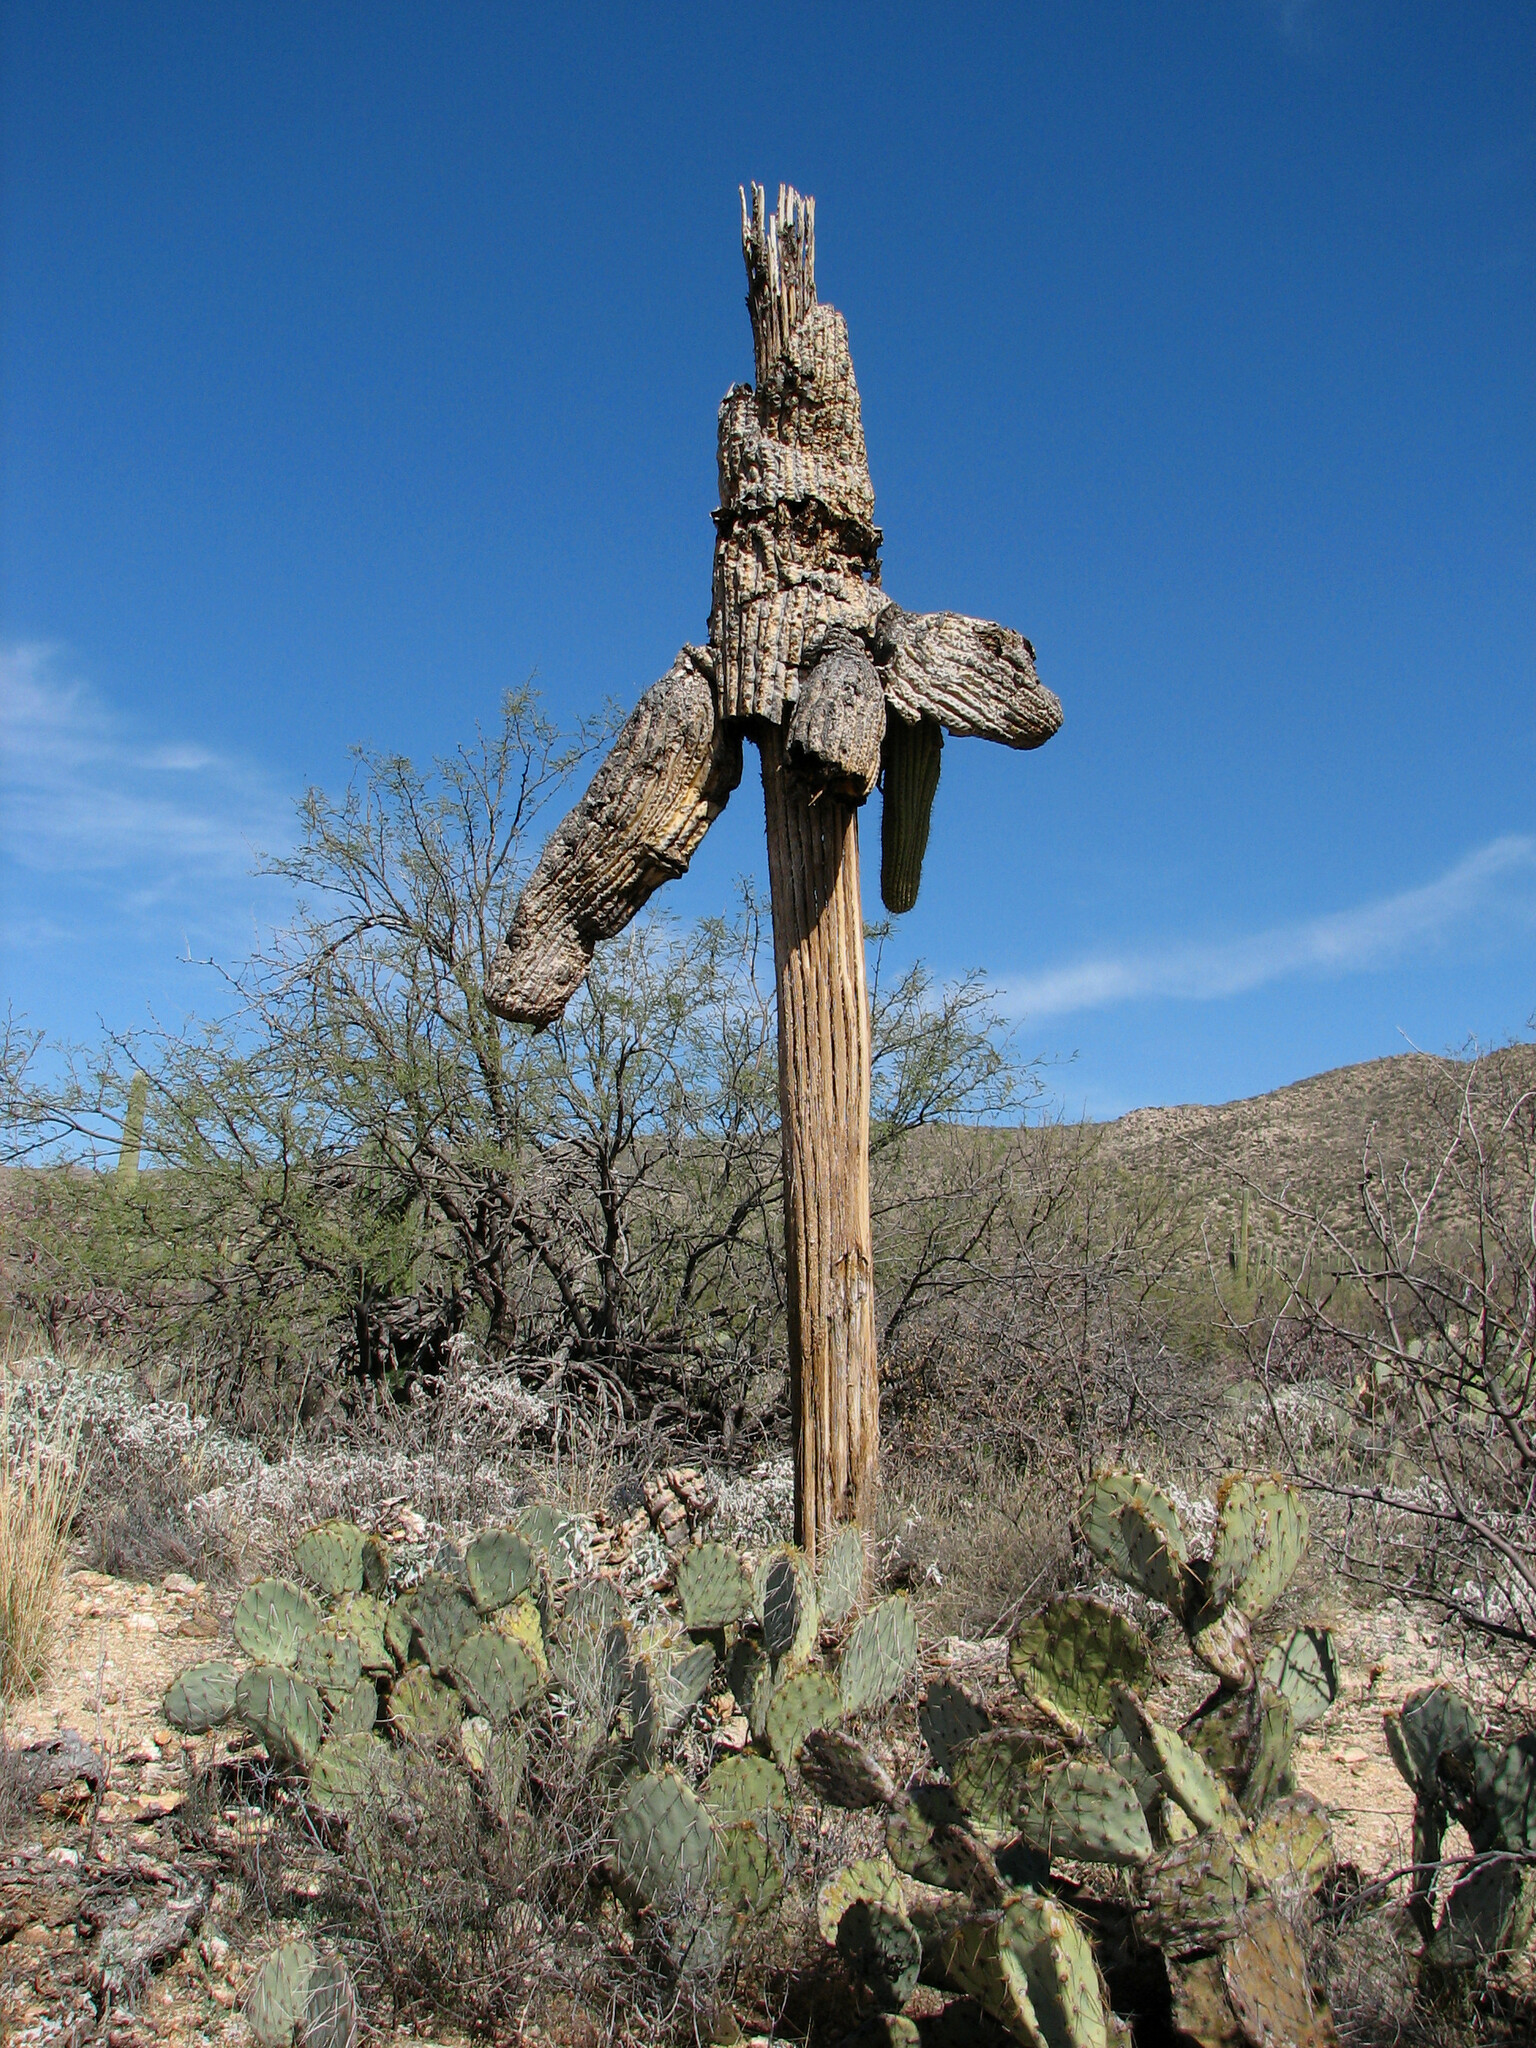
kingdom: Plantae
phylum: Tracheophyta
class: Magnoliopsida
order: Caryophyllales
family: Cactaceae
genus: Carnegiea
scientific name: Carnegiea gigantea
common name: Saguaro
